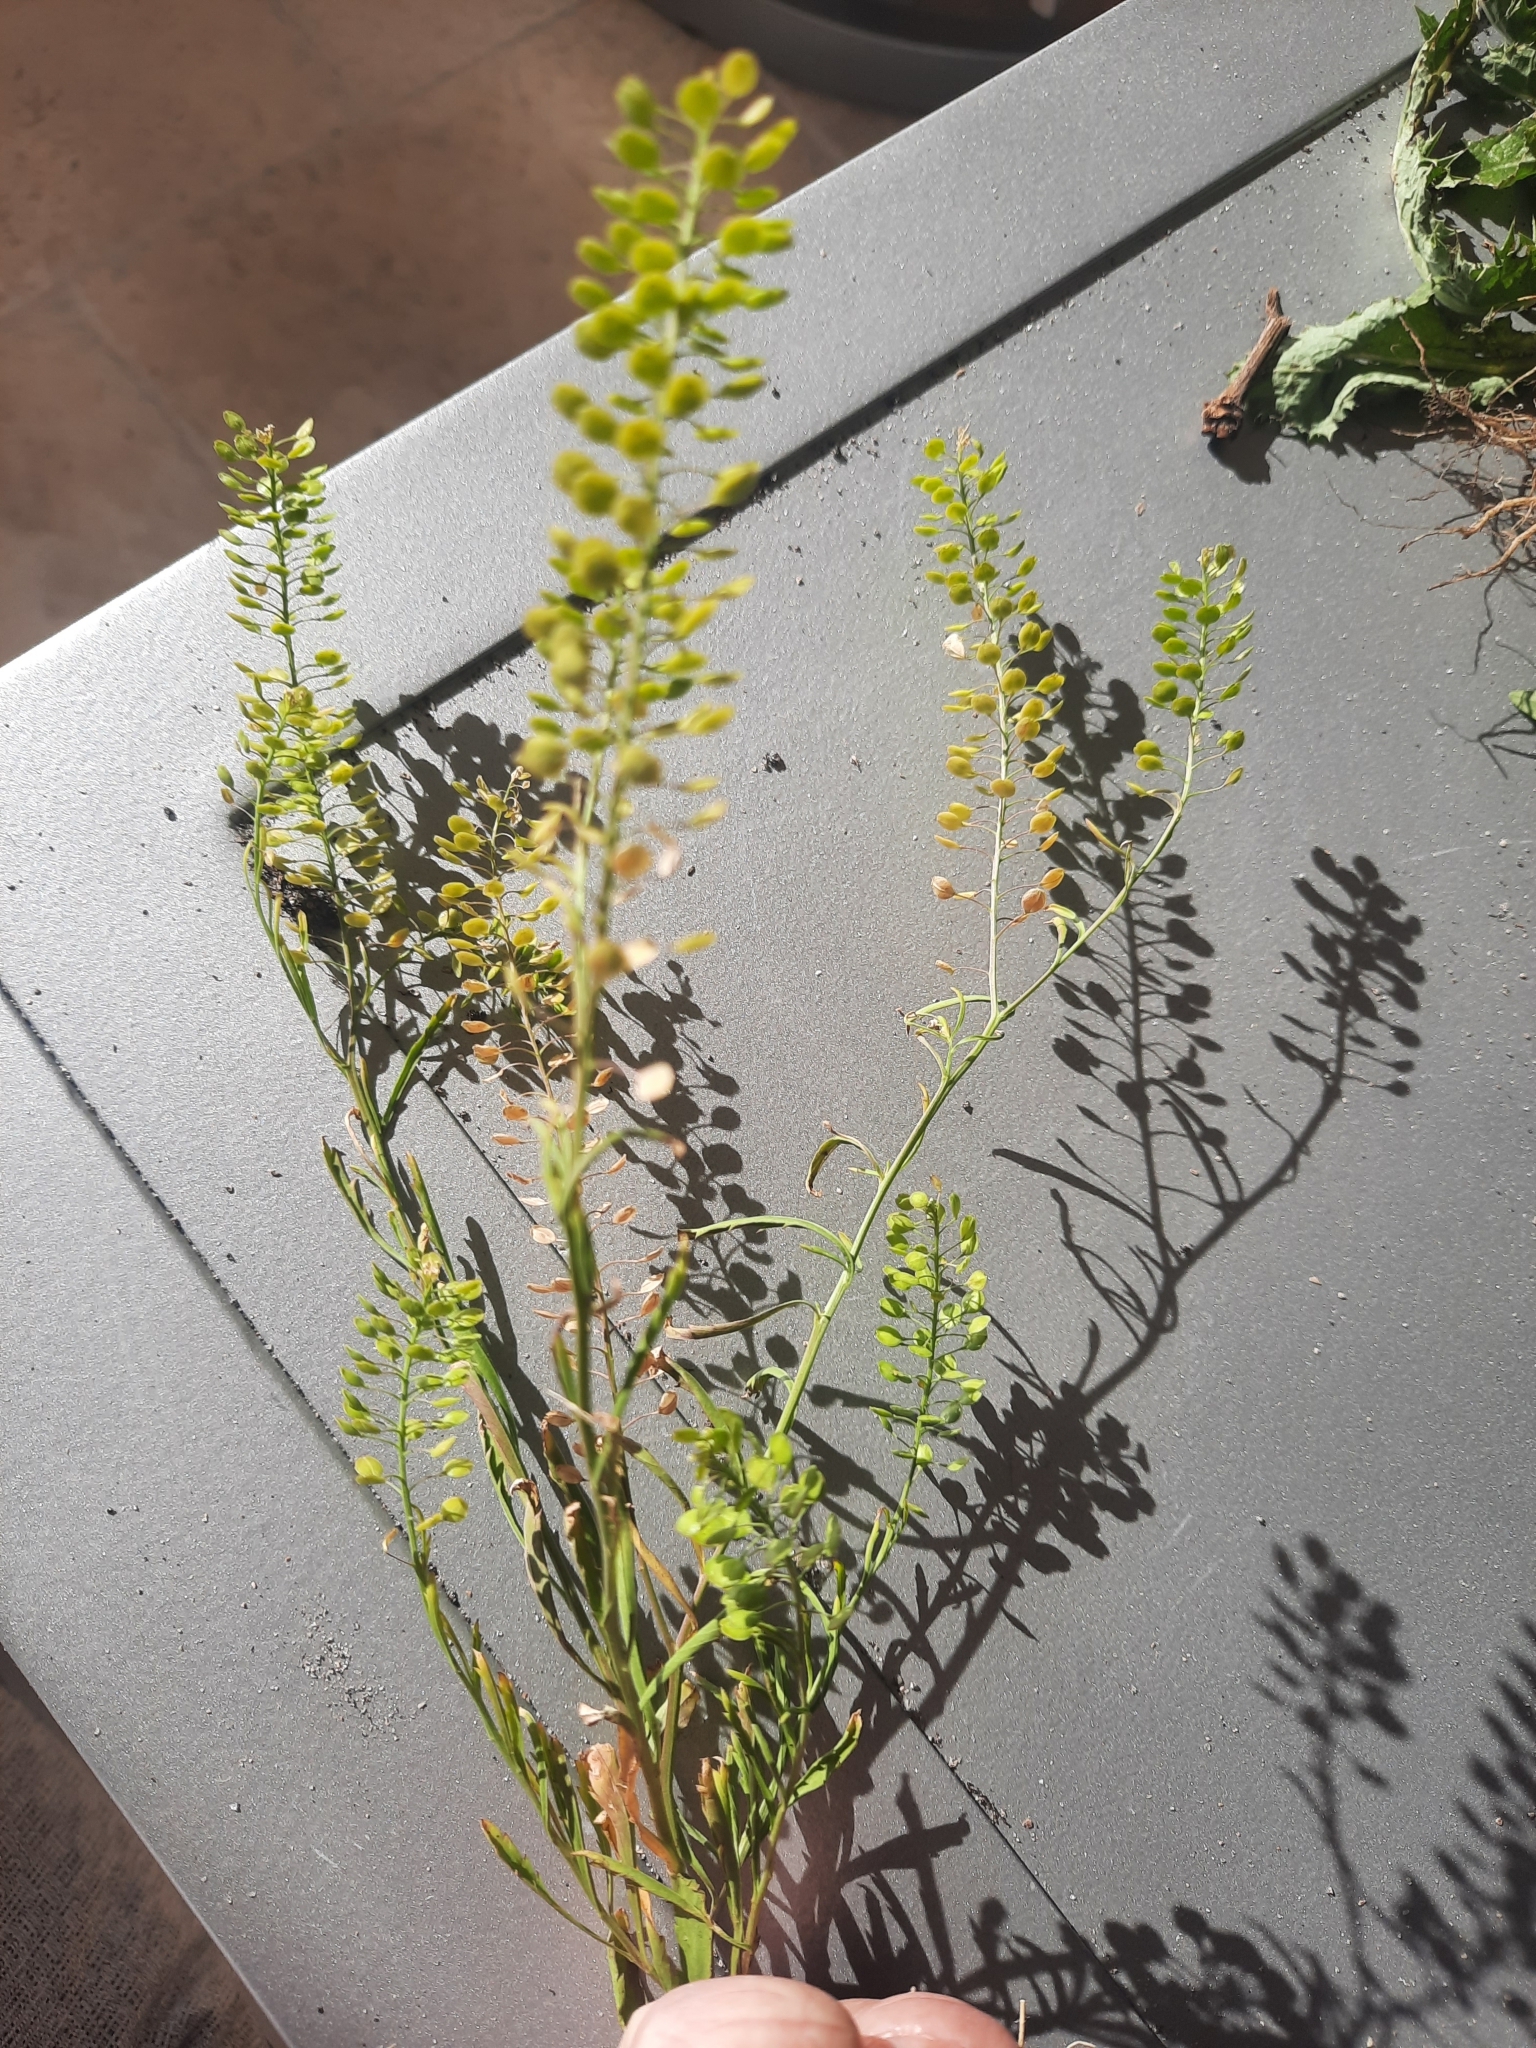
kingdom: Plantae
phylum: Tracheophyta
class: Magnoliopsida
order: Brassicales
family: Brassicaceae
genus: Lepidium
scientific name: Lepidium virginicum
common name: Least pepperwort
